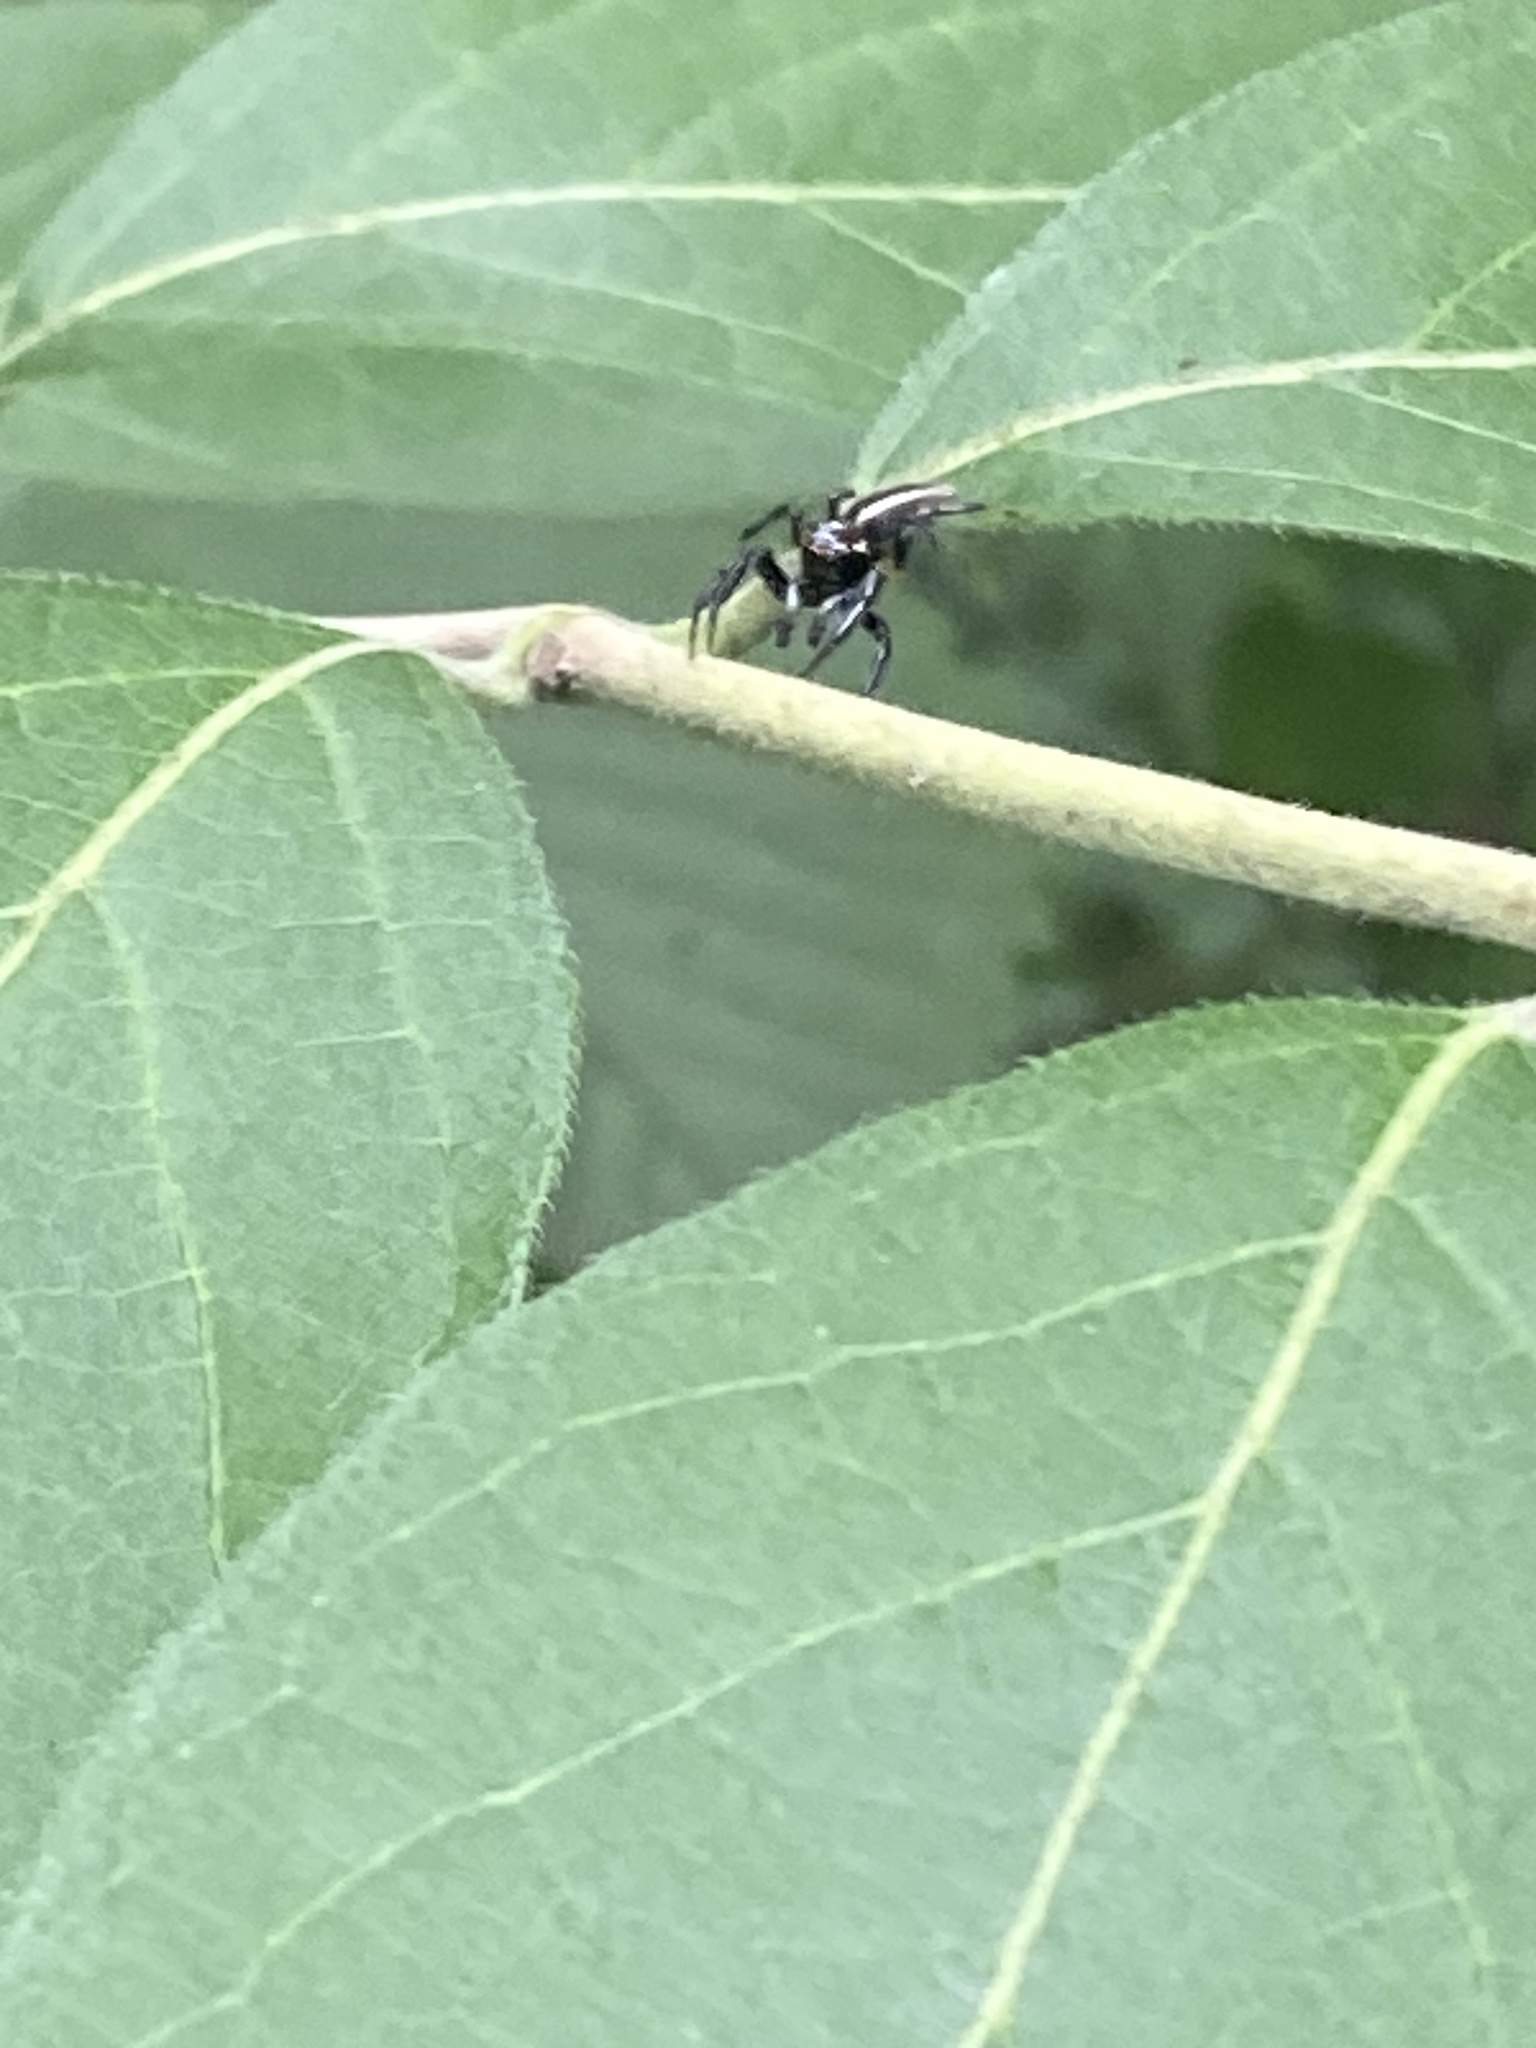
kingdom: Animalia
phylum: Arthropoda
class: Arachnida
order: Araneae
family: Salticidae
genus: Colonus
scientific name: Colonus sylvanus
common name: Jumping spiders
